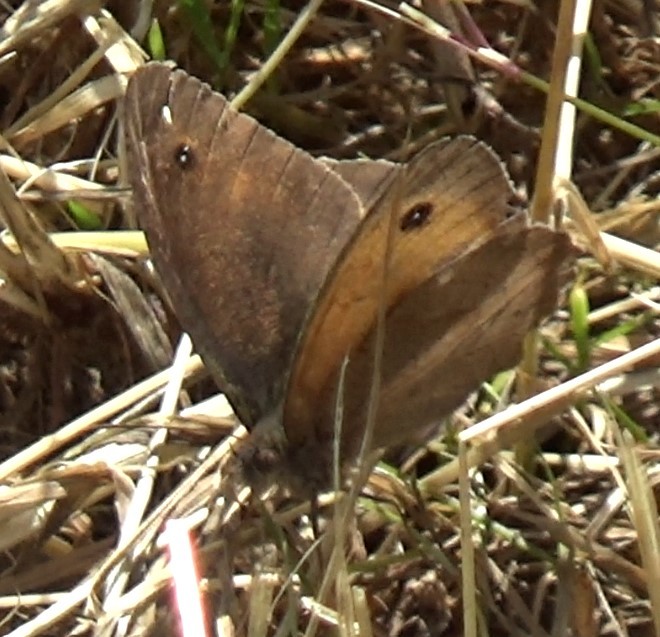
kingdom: Animalia
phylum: Arthropoda
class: Insecta
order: Lepidoptera
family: Nymphalidae
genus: Maniola
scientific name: Maniola jurtina
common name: Meadow brown
